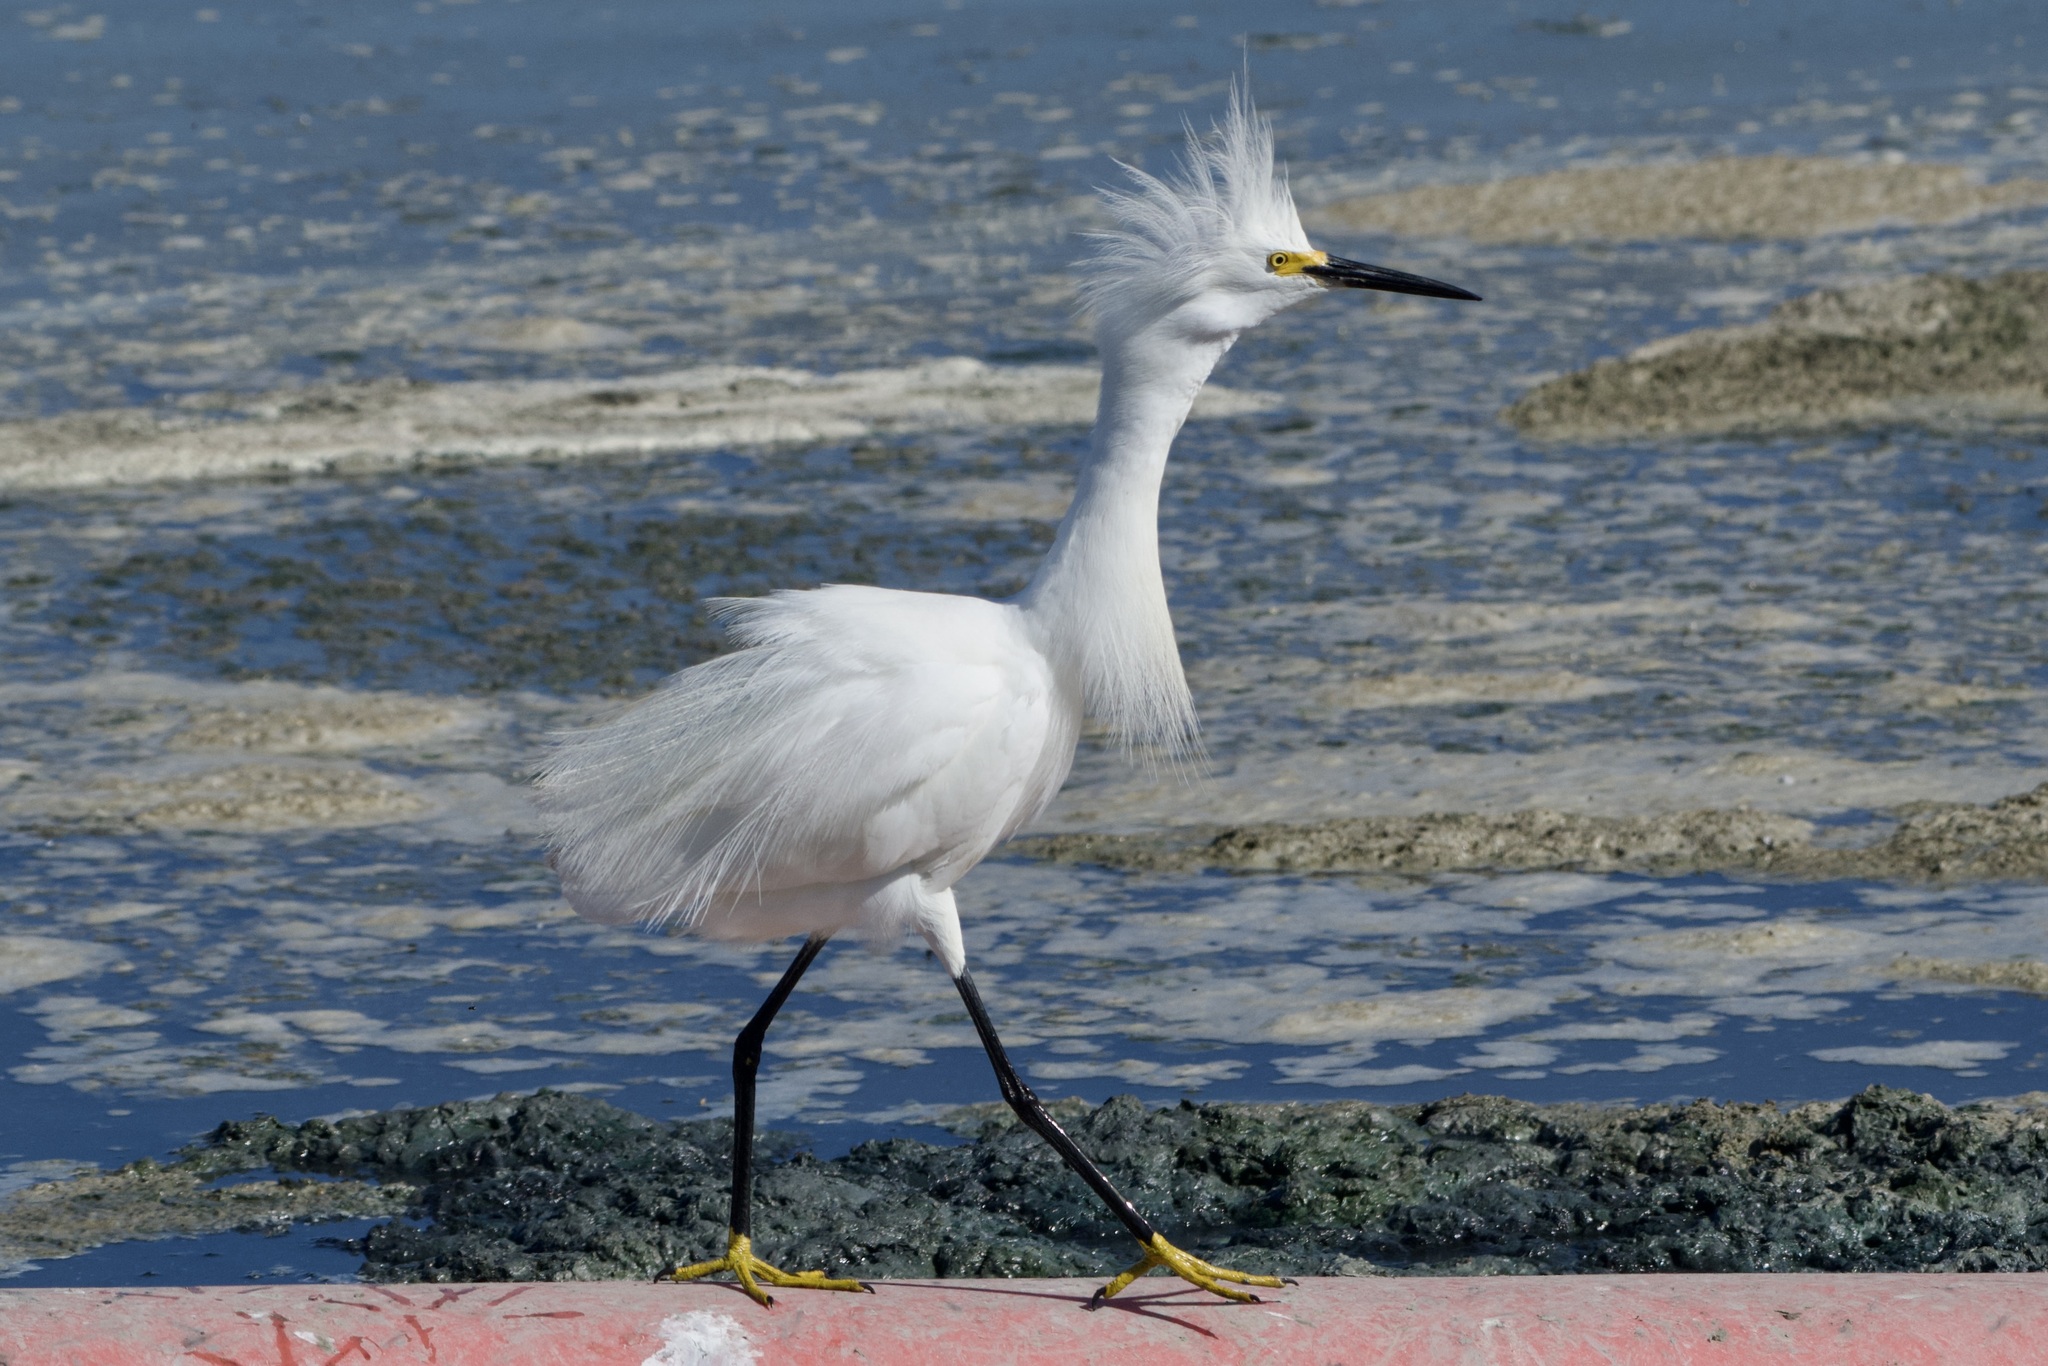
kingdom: Animalia
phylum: Chordata
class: Aves
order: Pelecaniformes
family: Ardeidae
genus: Egretta
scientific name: Egretta thula
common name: Snowy egret
